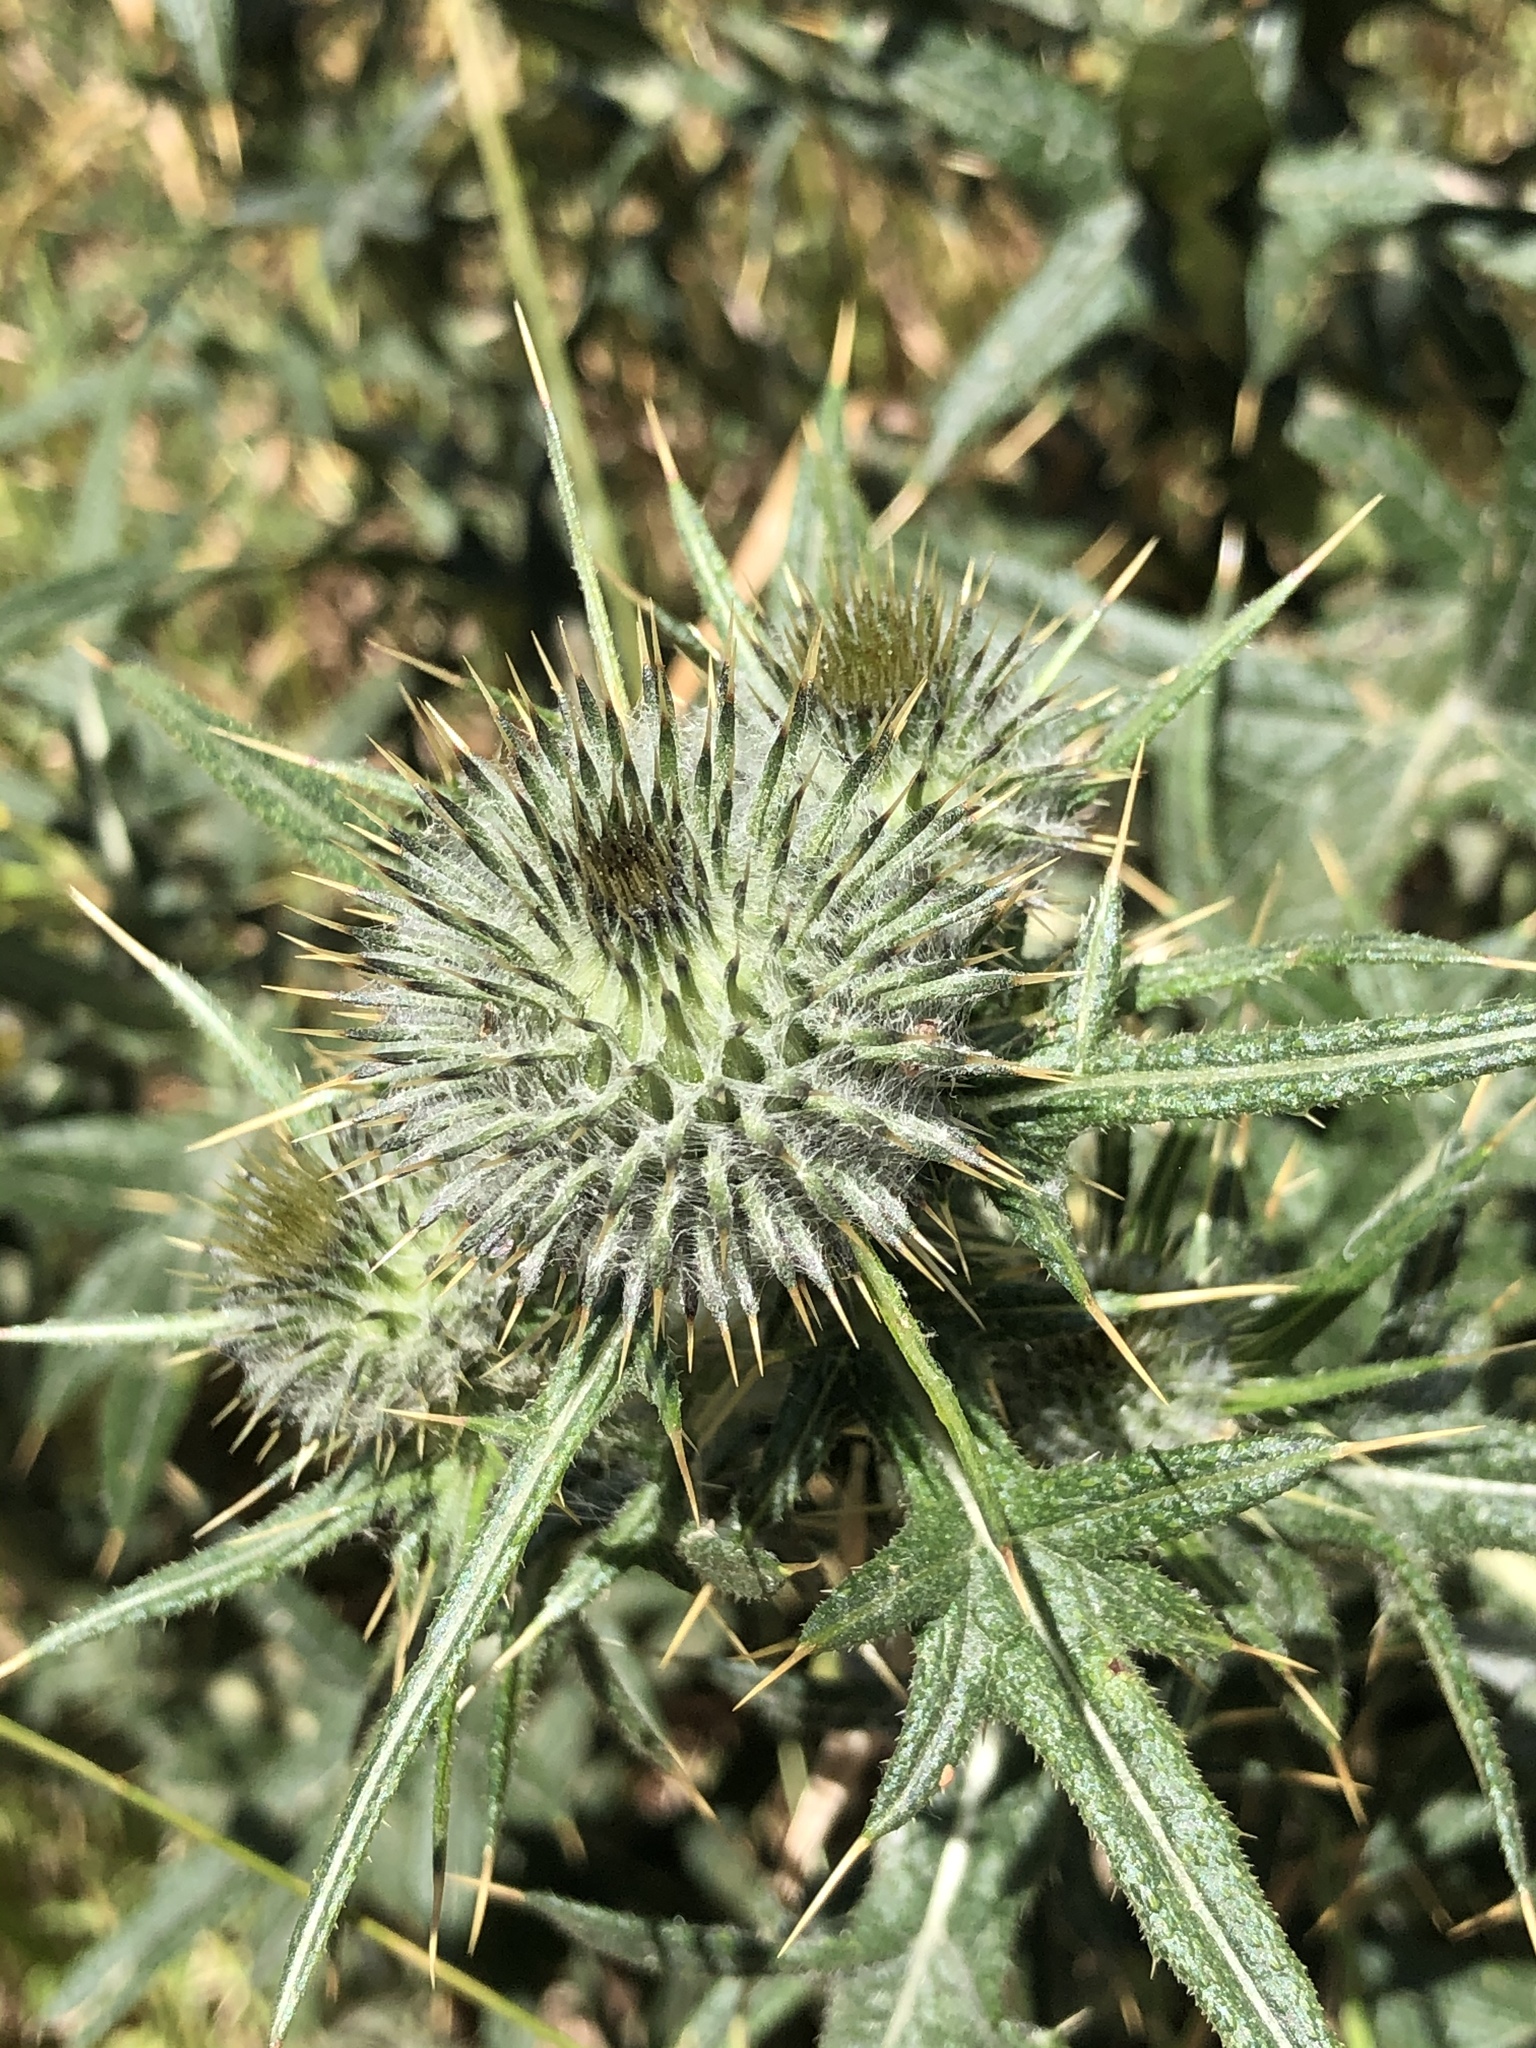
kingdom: Plantae
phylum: Tracheophyta
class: Magnoliopsida
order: Asterales
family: Asteraceae
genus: Cirsium
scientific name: Cirsium vulgare
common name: Bull thistle
